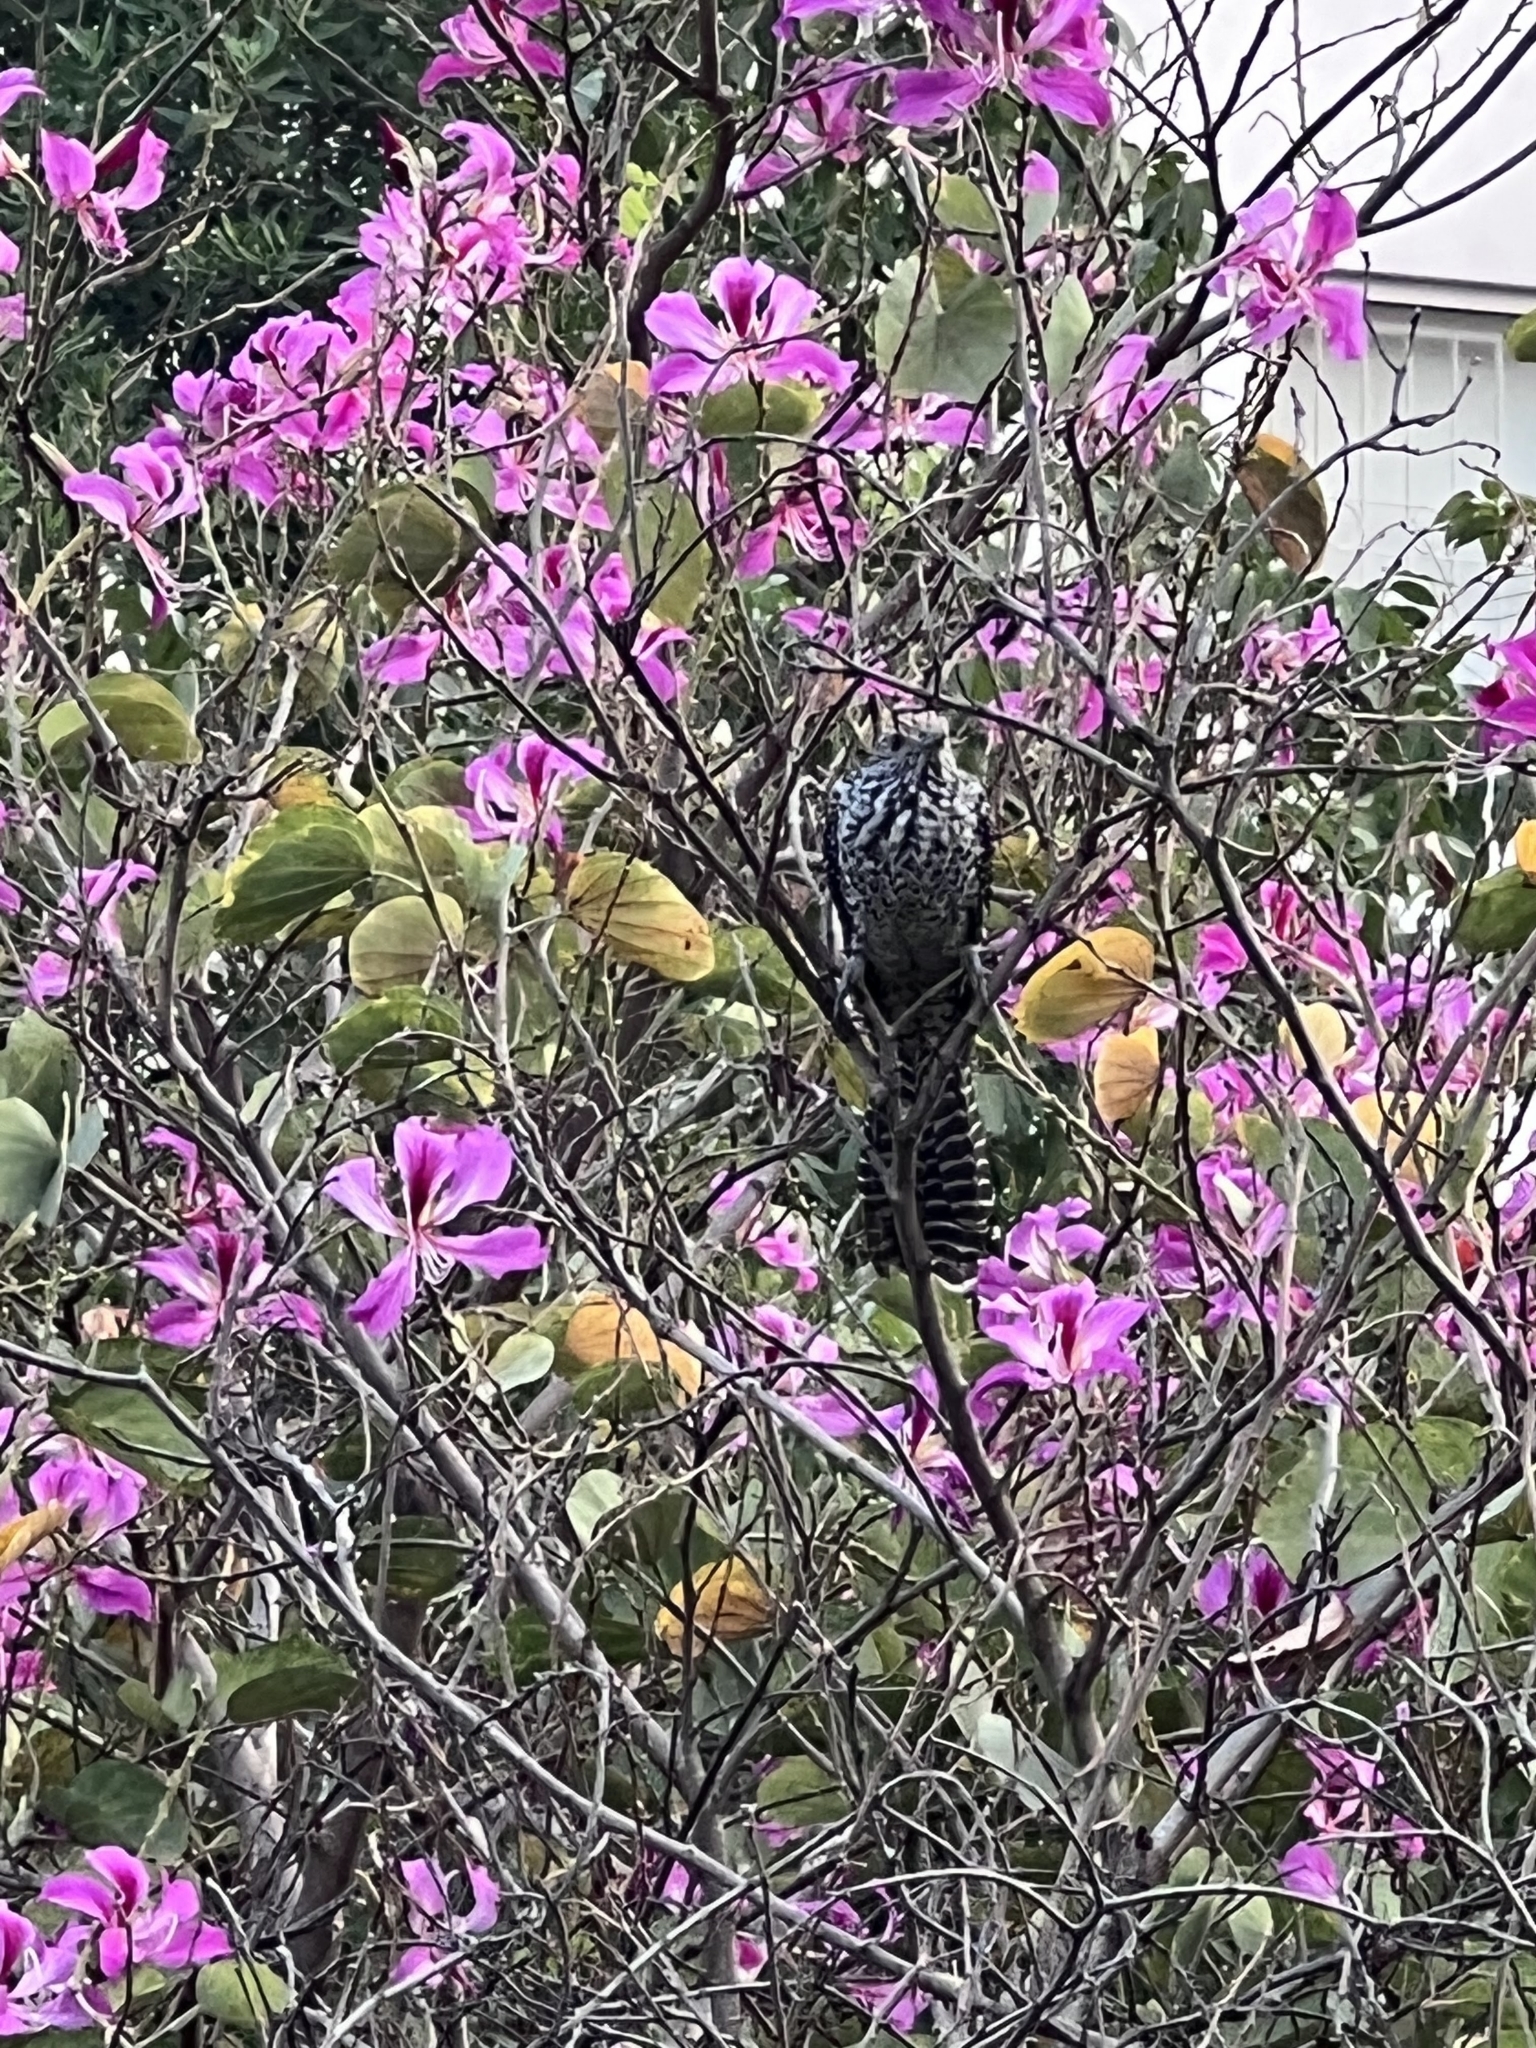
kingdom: Animalia
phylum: Chordata
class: Aves
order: Cuculiformes
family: Cuculidae
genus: Eudynamys
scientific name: Eudynamys scolopaceus
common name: Asian koel
